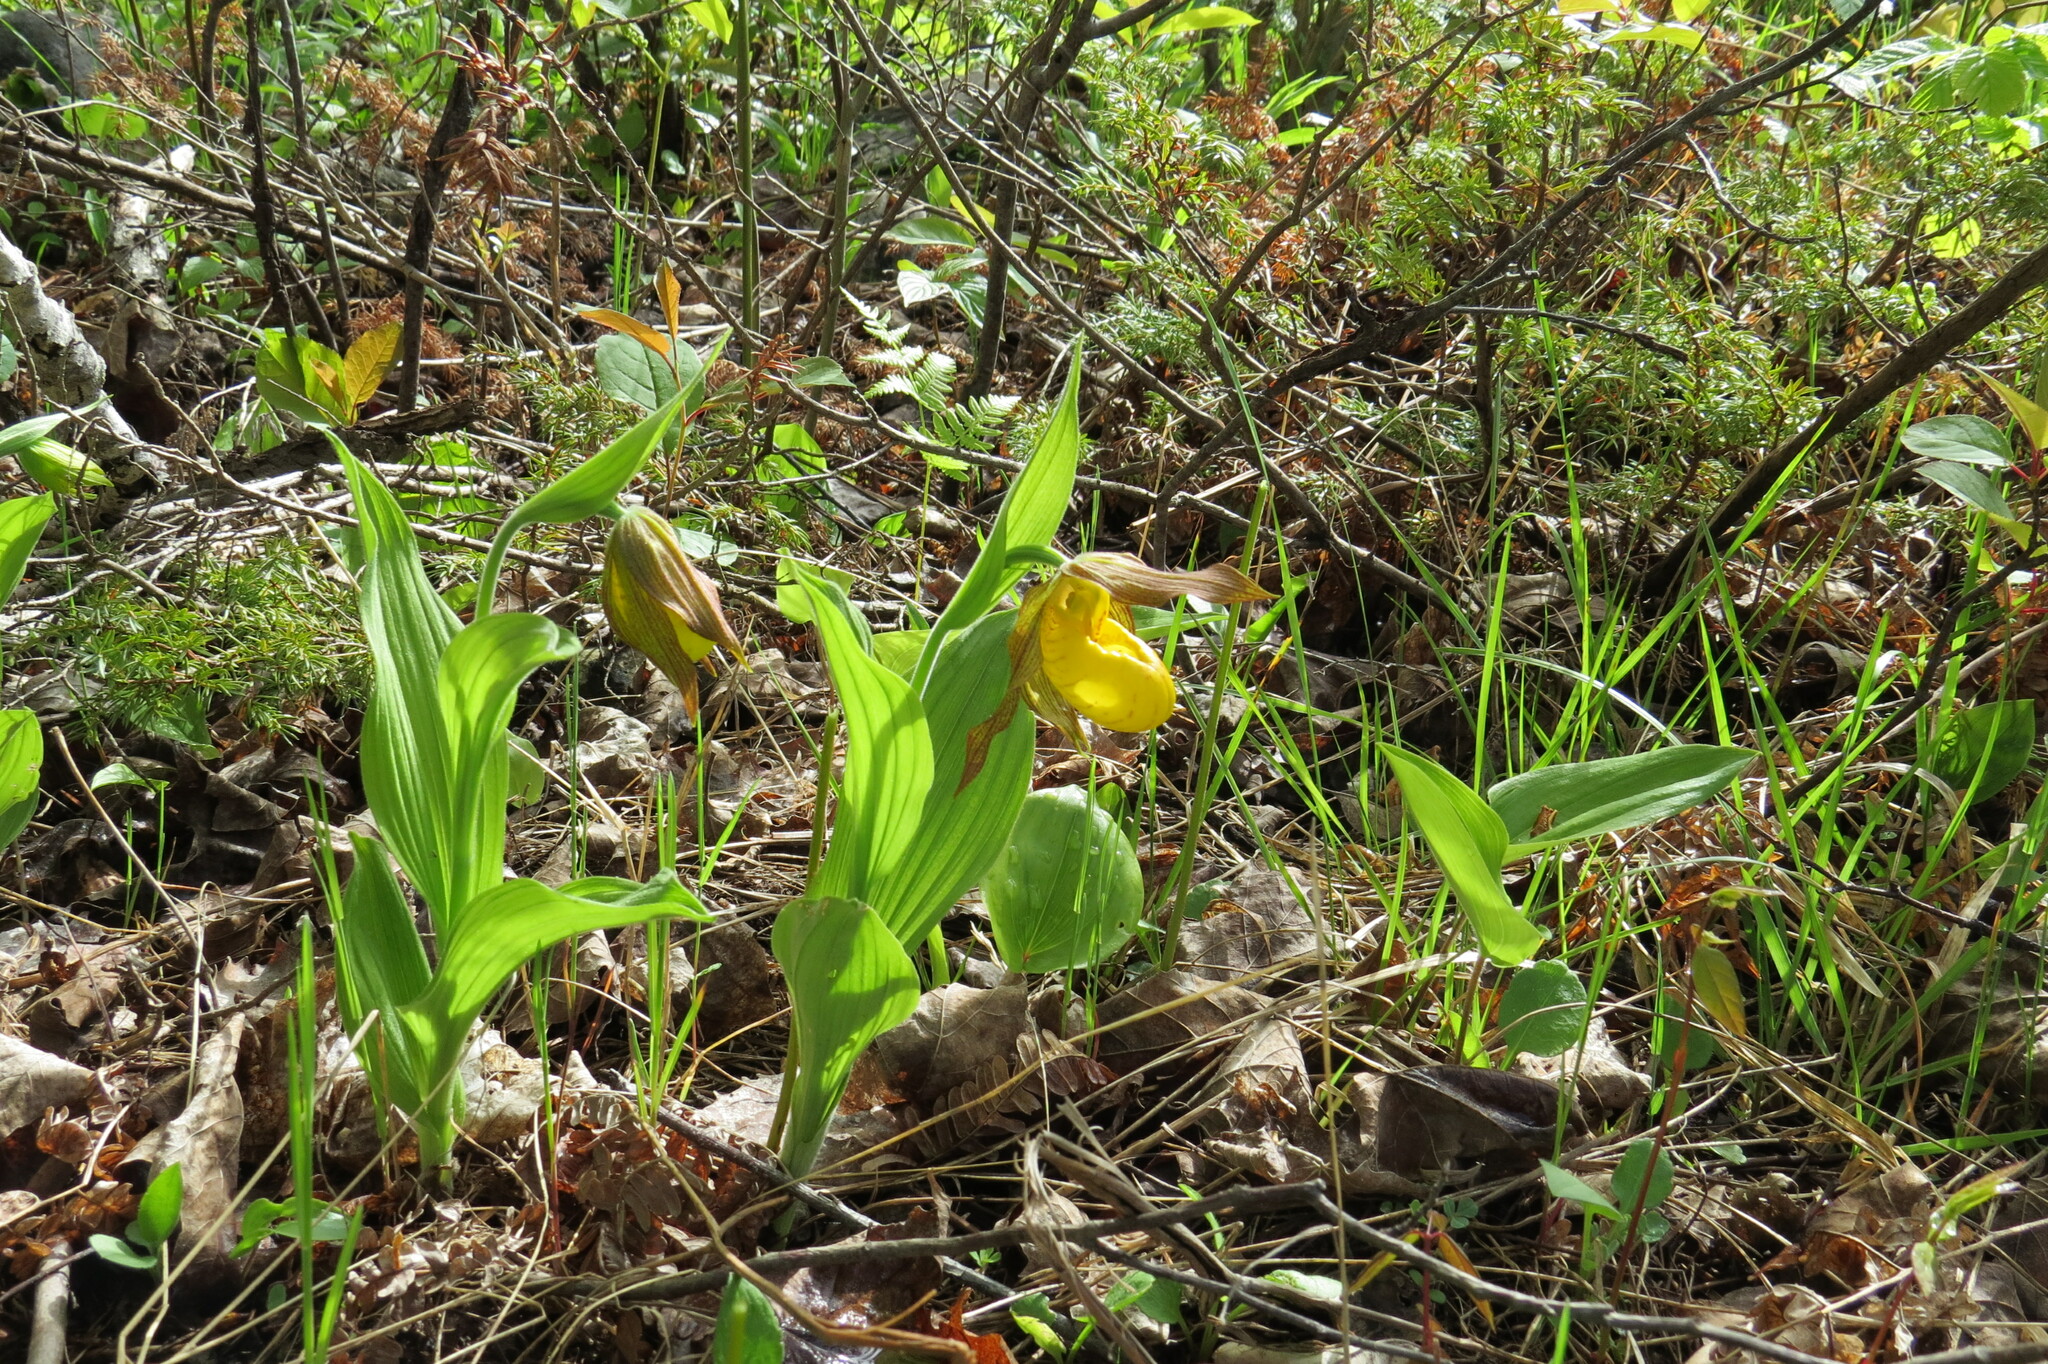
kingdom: Plantae
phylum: Tracheophyta
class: Liliopsida
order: Asparagales
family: Orchidaceae
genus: Cypripedium
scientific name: Cypripedium parviflorum
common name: American yellow lady's-slipper
